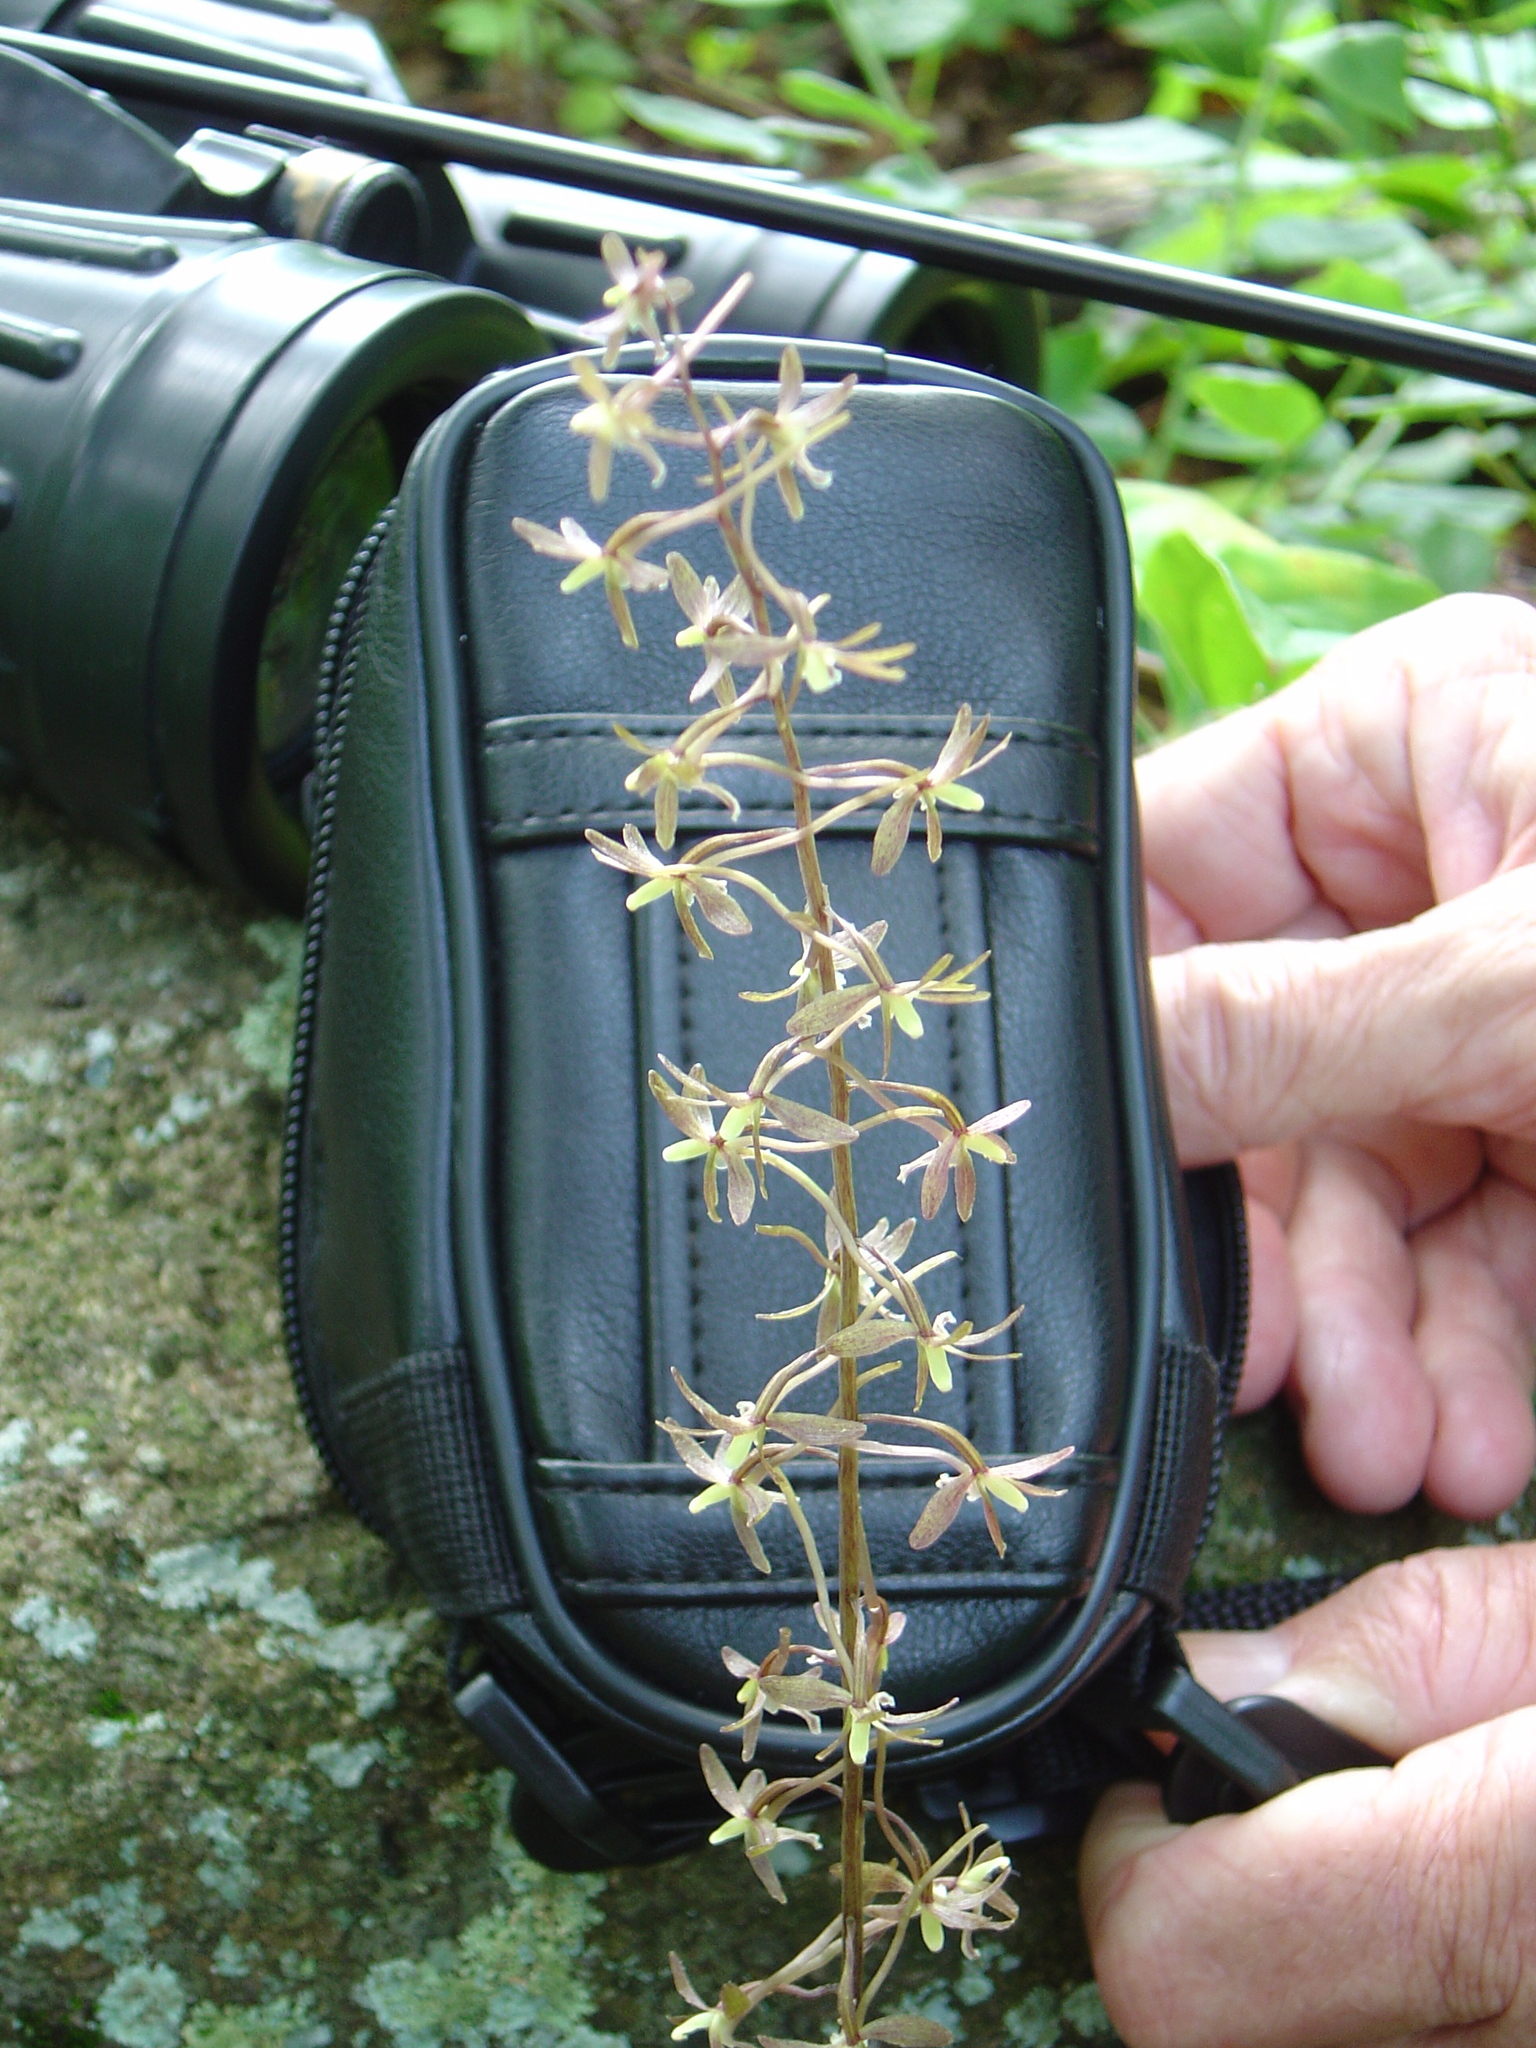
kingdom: Plantae
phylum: Tracheophyta
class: Liliopsida
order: Asparagales
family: Orchidaceae
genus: Tipularia
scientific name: Tipularia discolor
